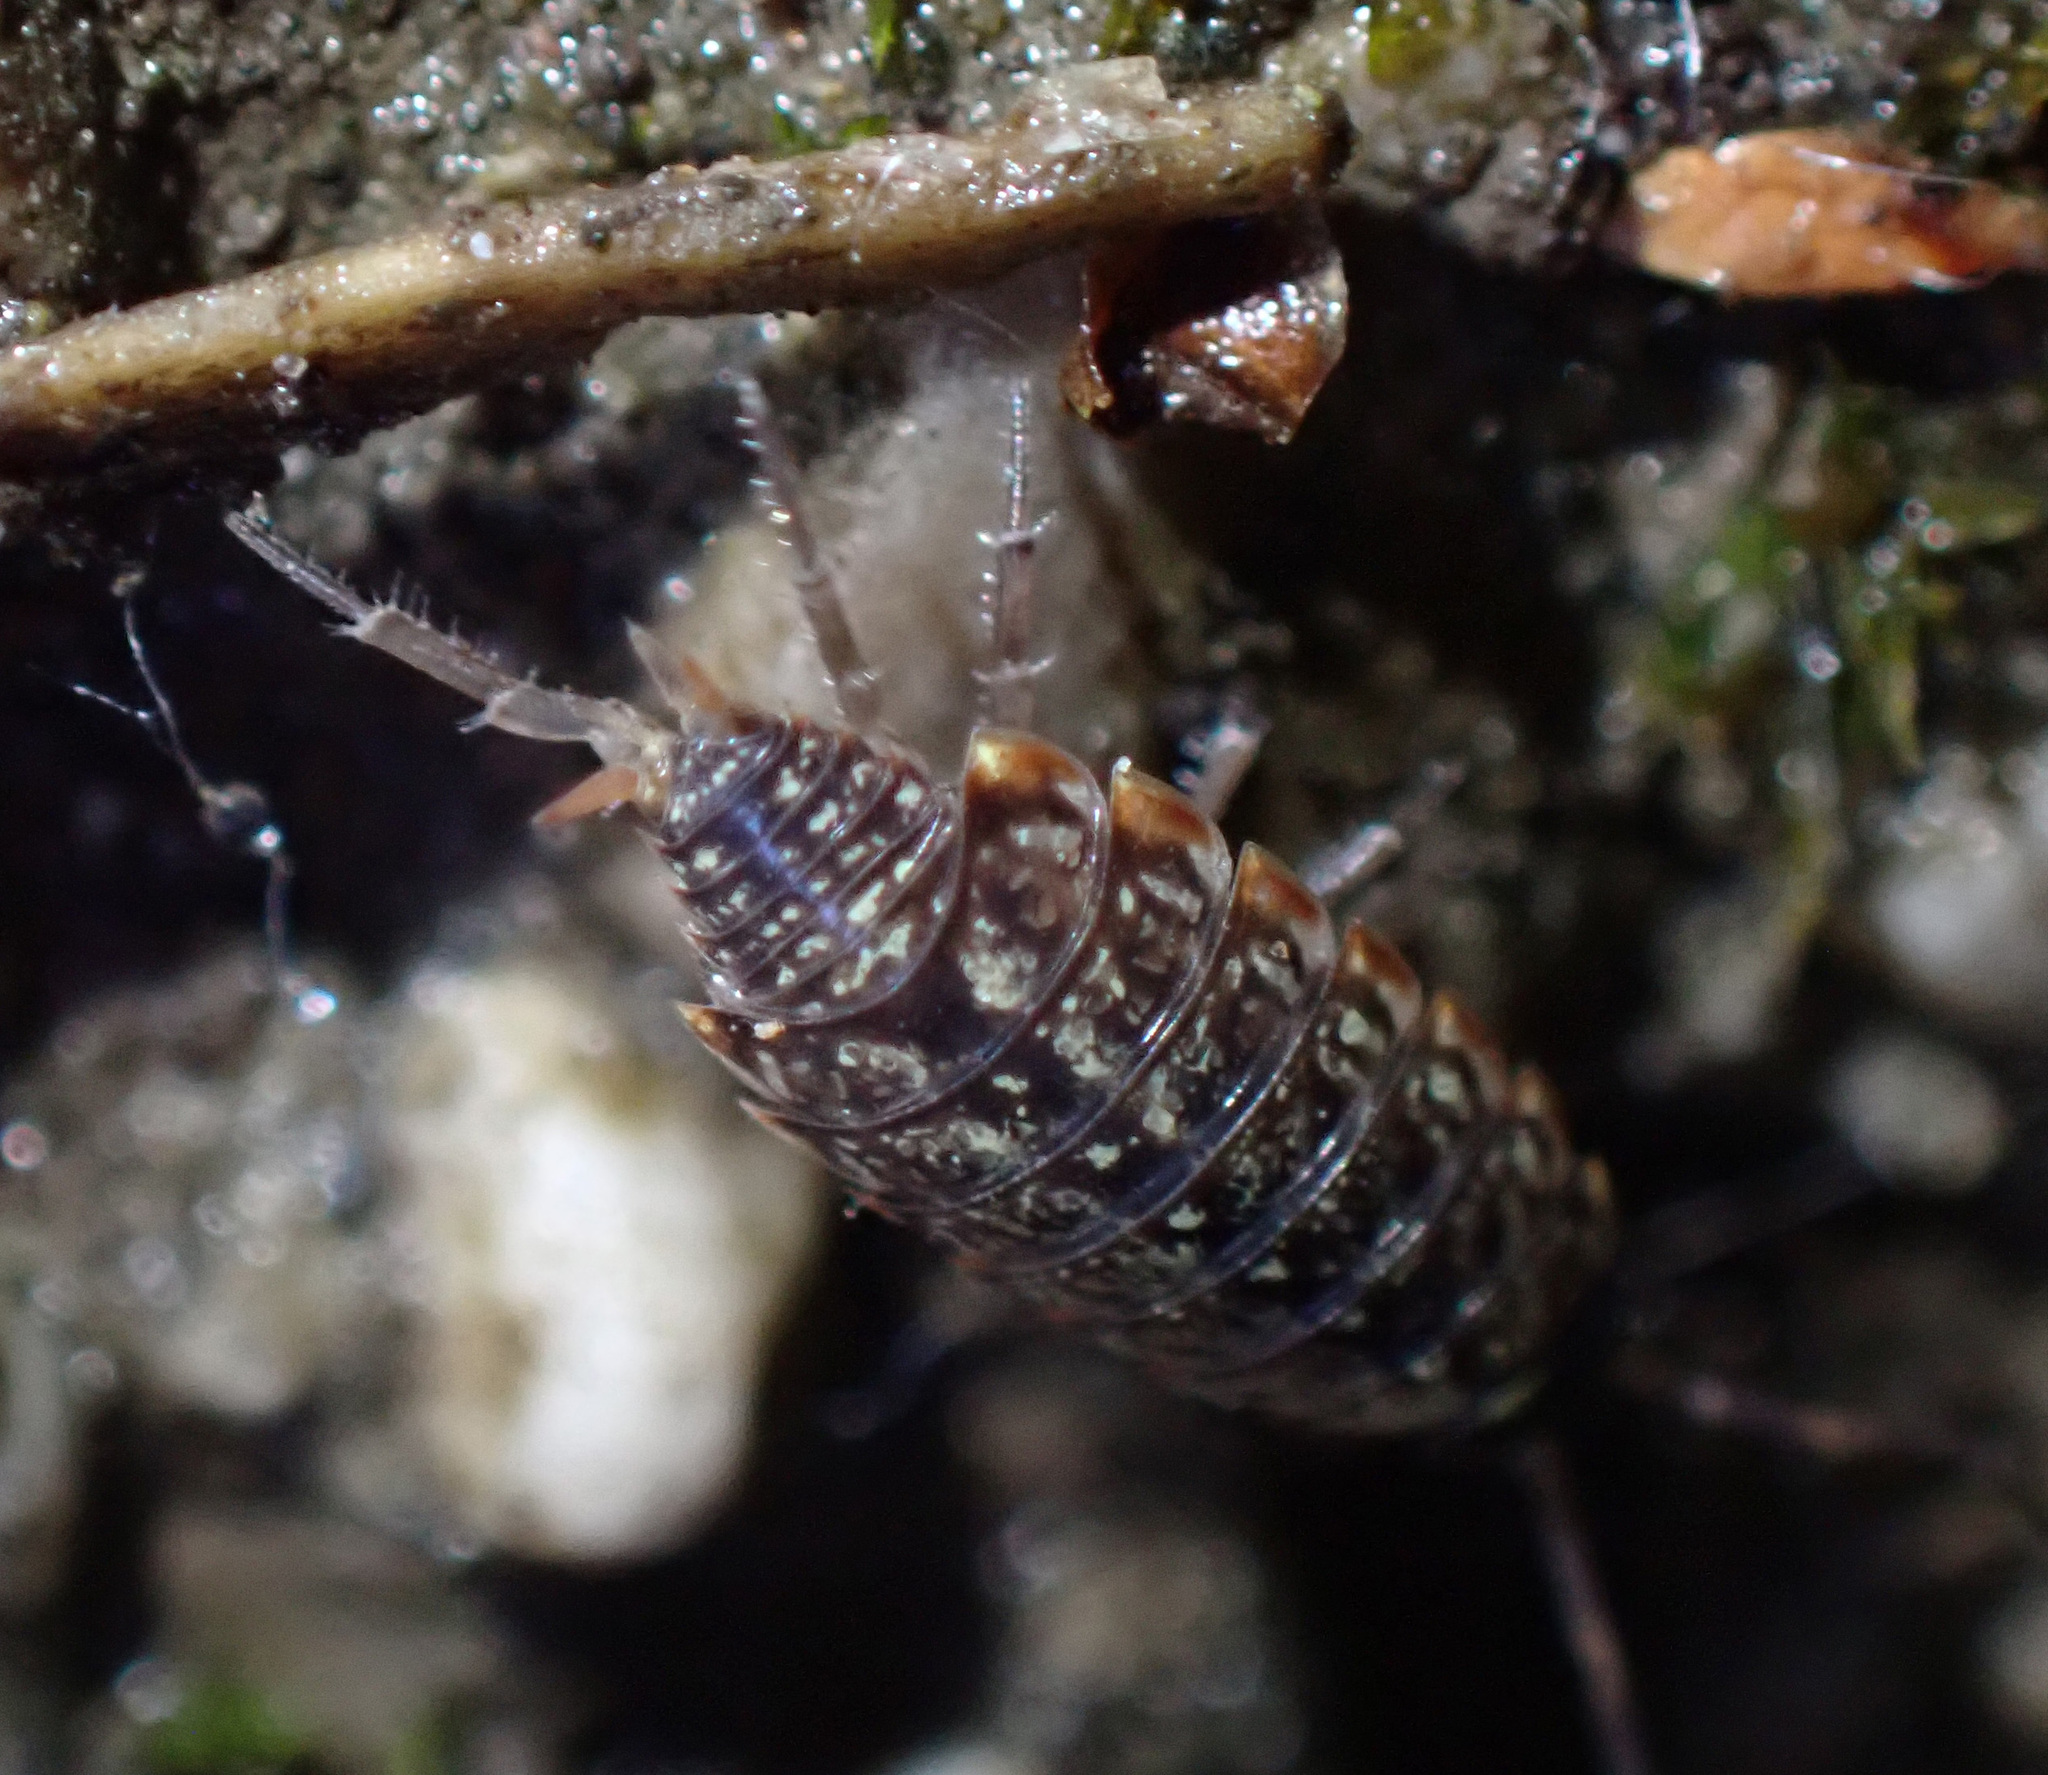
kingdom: Animalia
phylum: Arthropoda
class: Malacostraca
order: Isopoda
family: Philosciidae
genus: Philoscia
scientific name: Philoscia muscorum
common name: Common striped woodlouse
